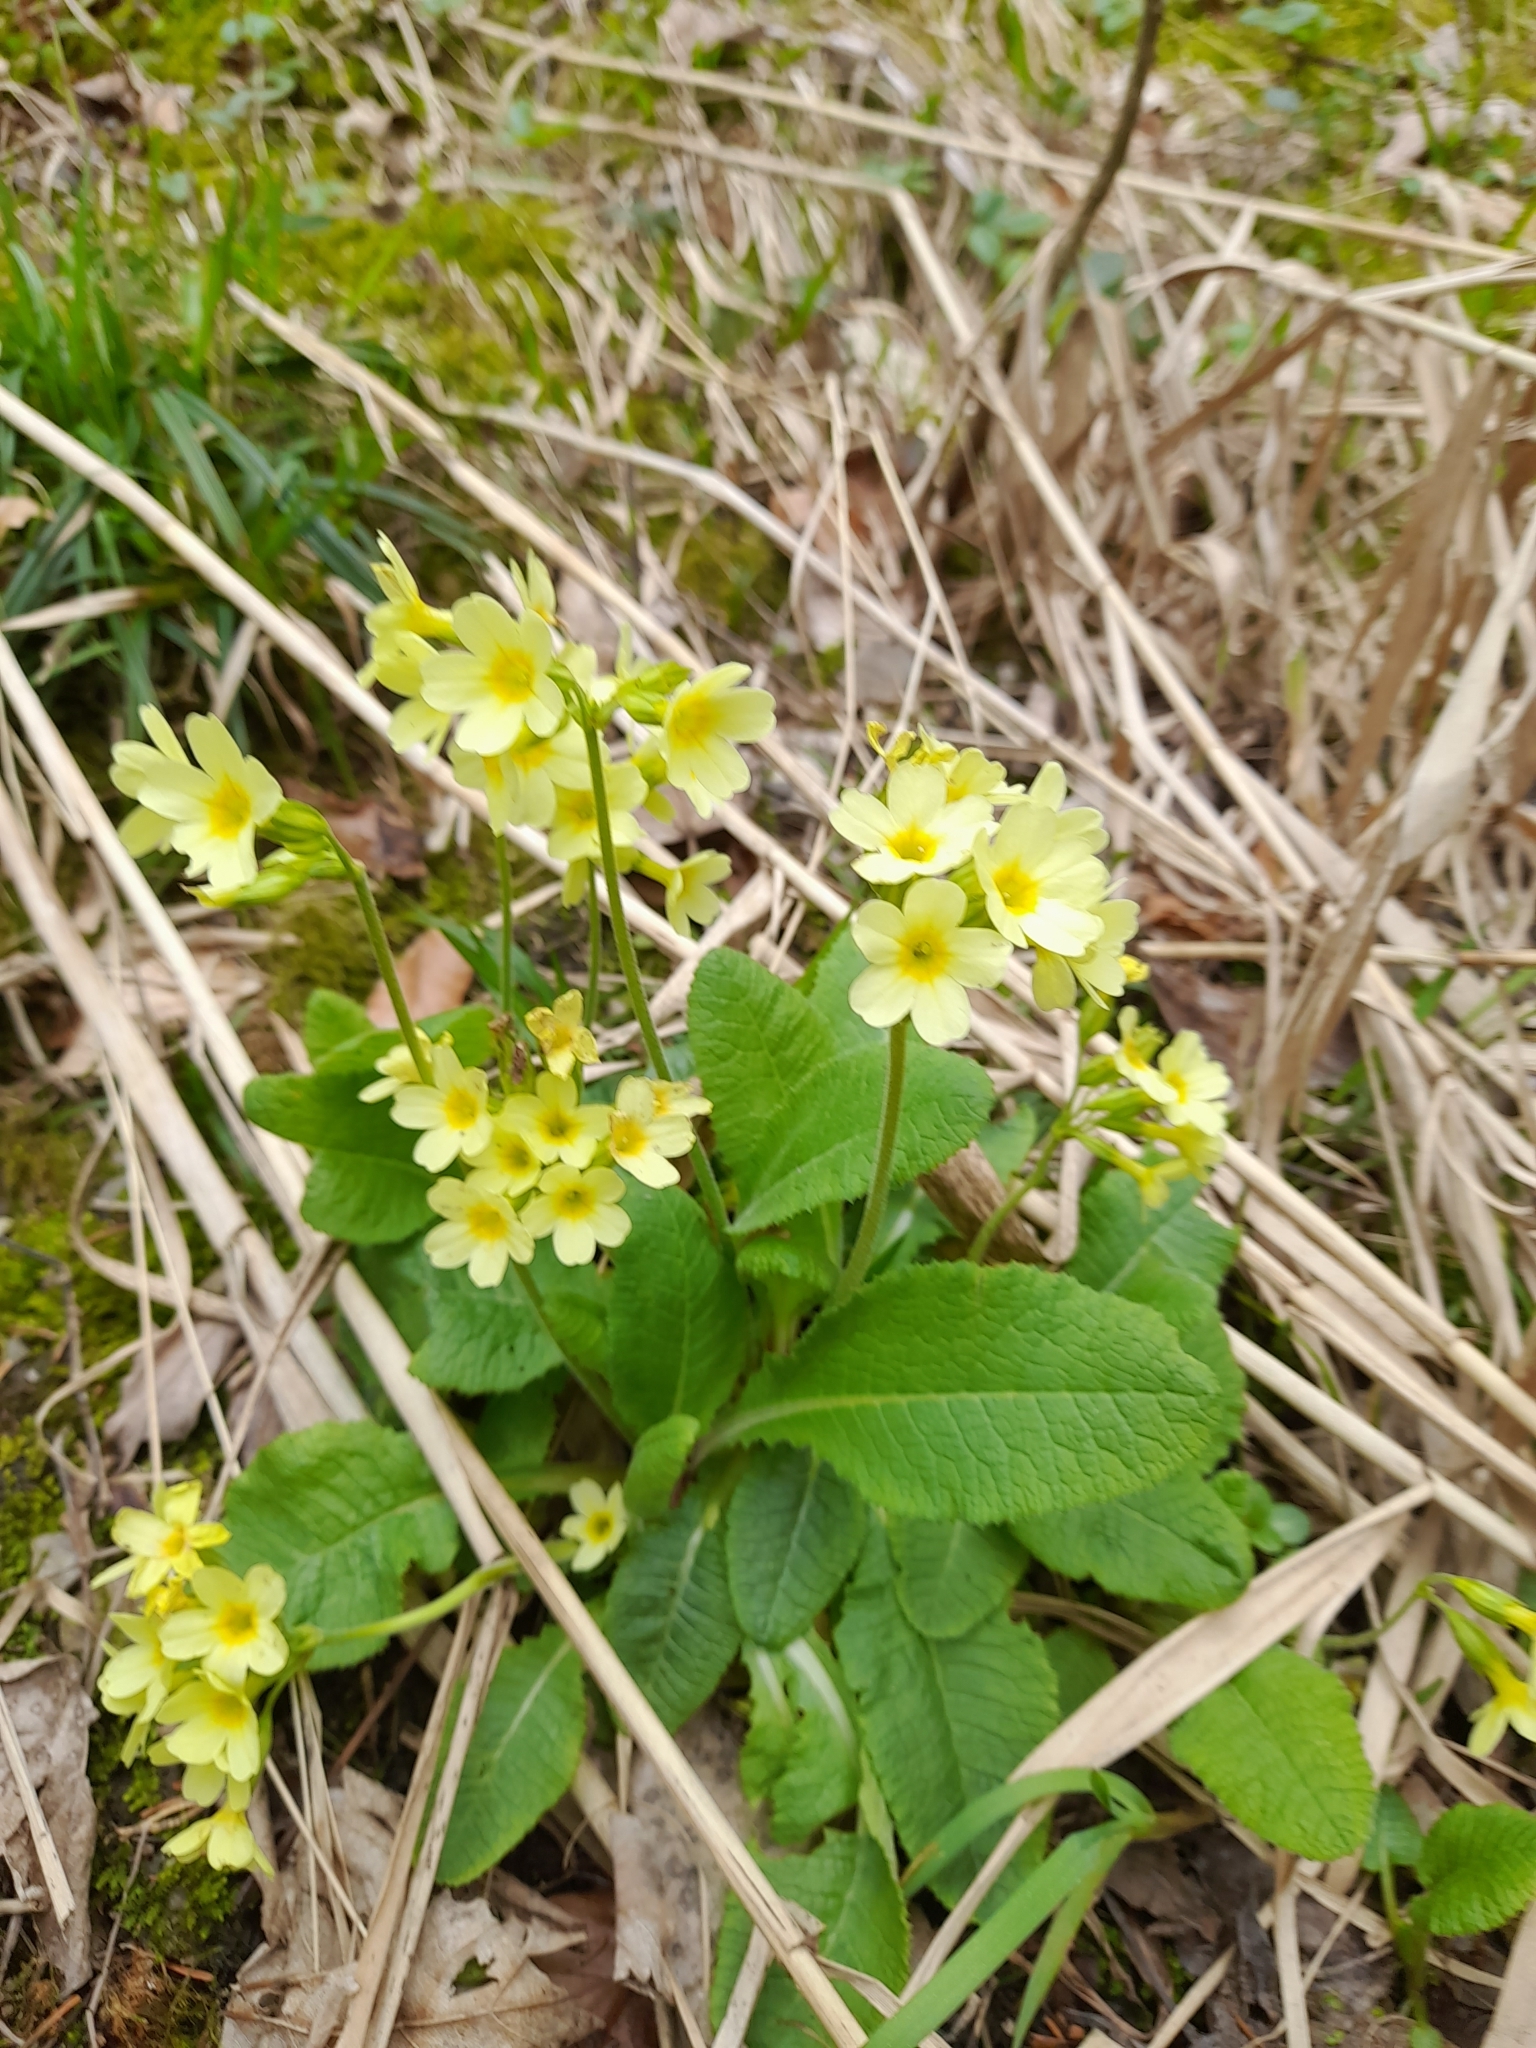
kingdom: Plantae
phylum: Tracheophyta
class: Magnoliopsida
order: Ericales
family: Primulaceae
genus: Primula
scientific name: Primula elatior
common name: Oxlip
